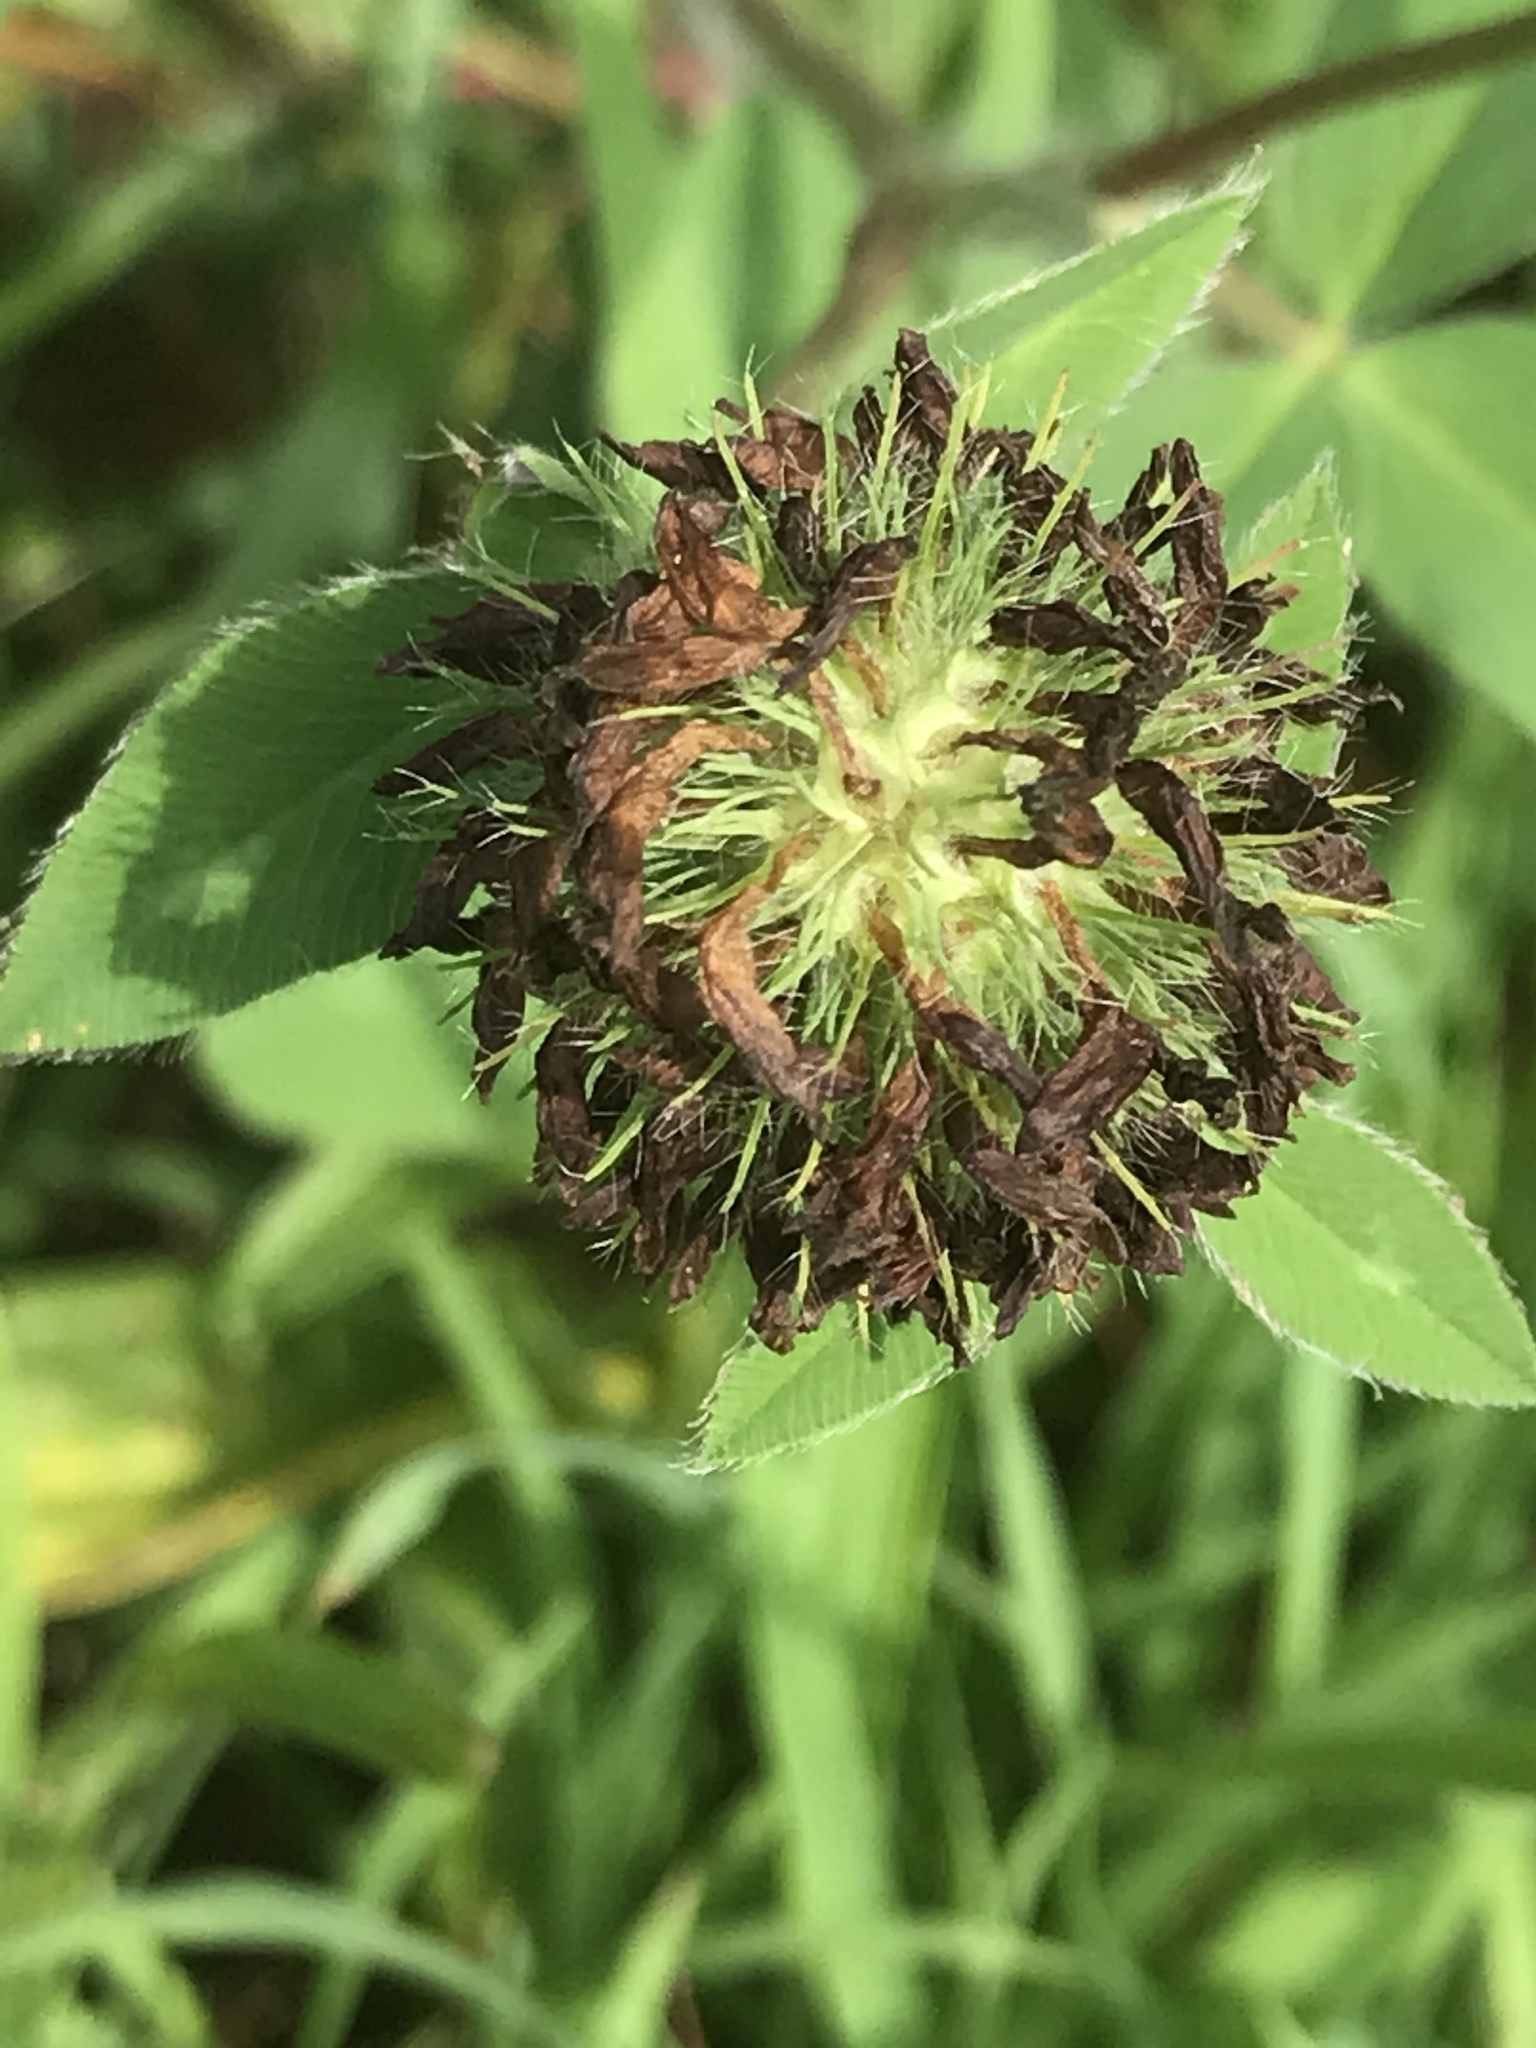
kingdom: Plantae
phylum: Tracheophyta
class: Magnoliopsida
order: Fabales
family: Fabaceae
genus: Trifolium
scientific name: Trifolium pratense
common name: Red clover
